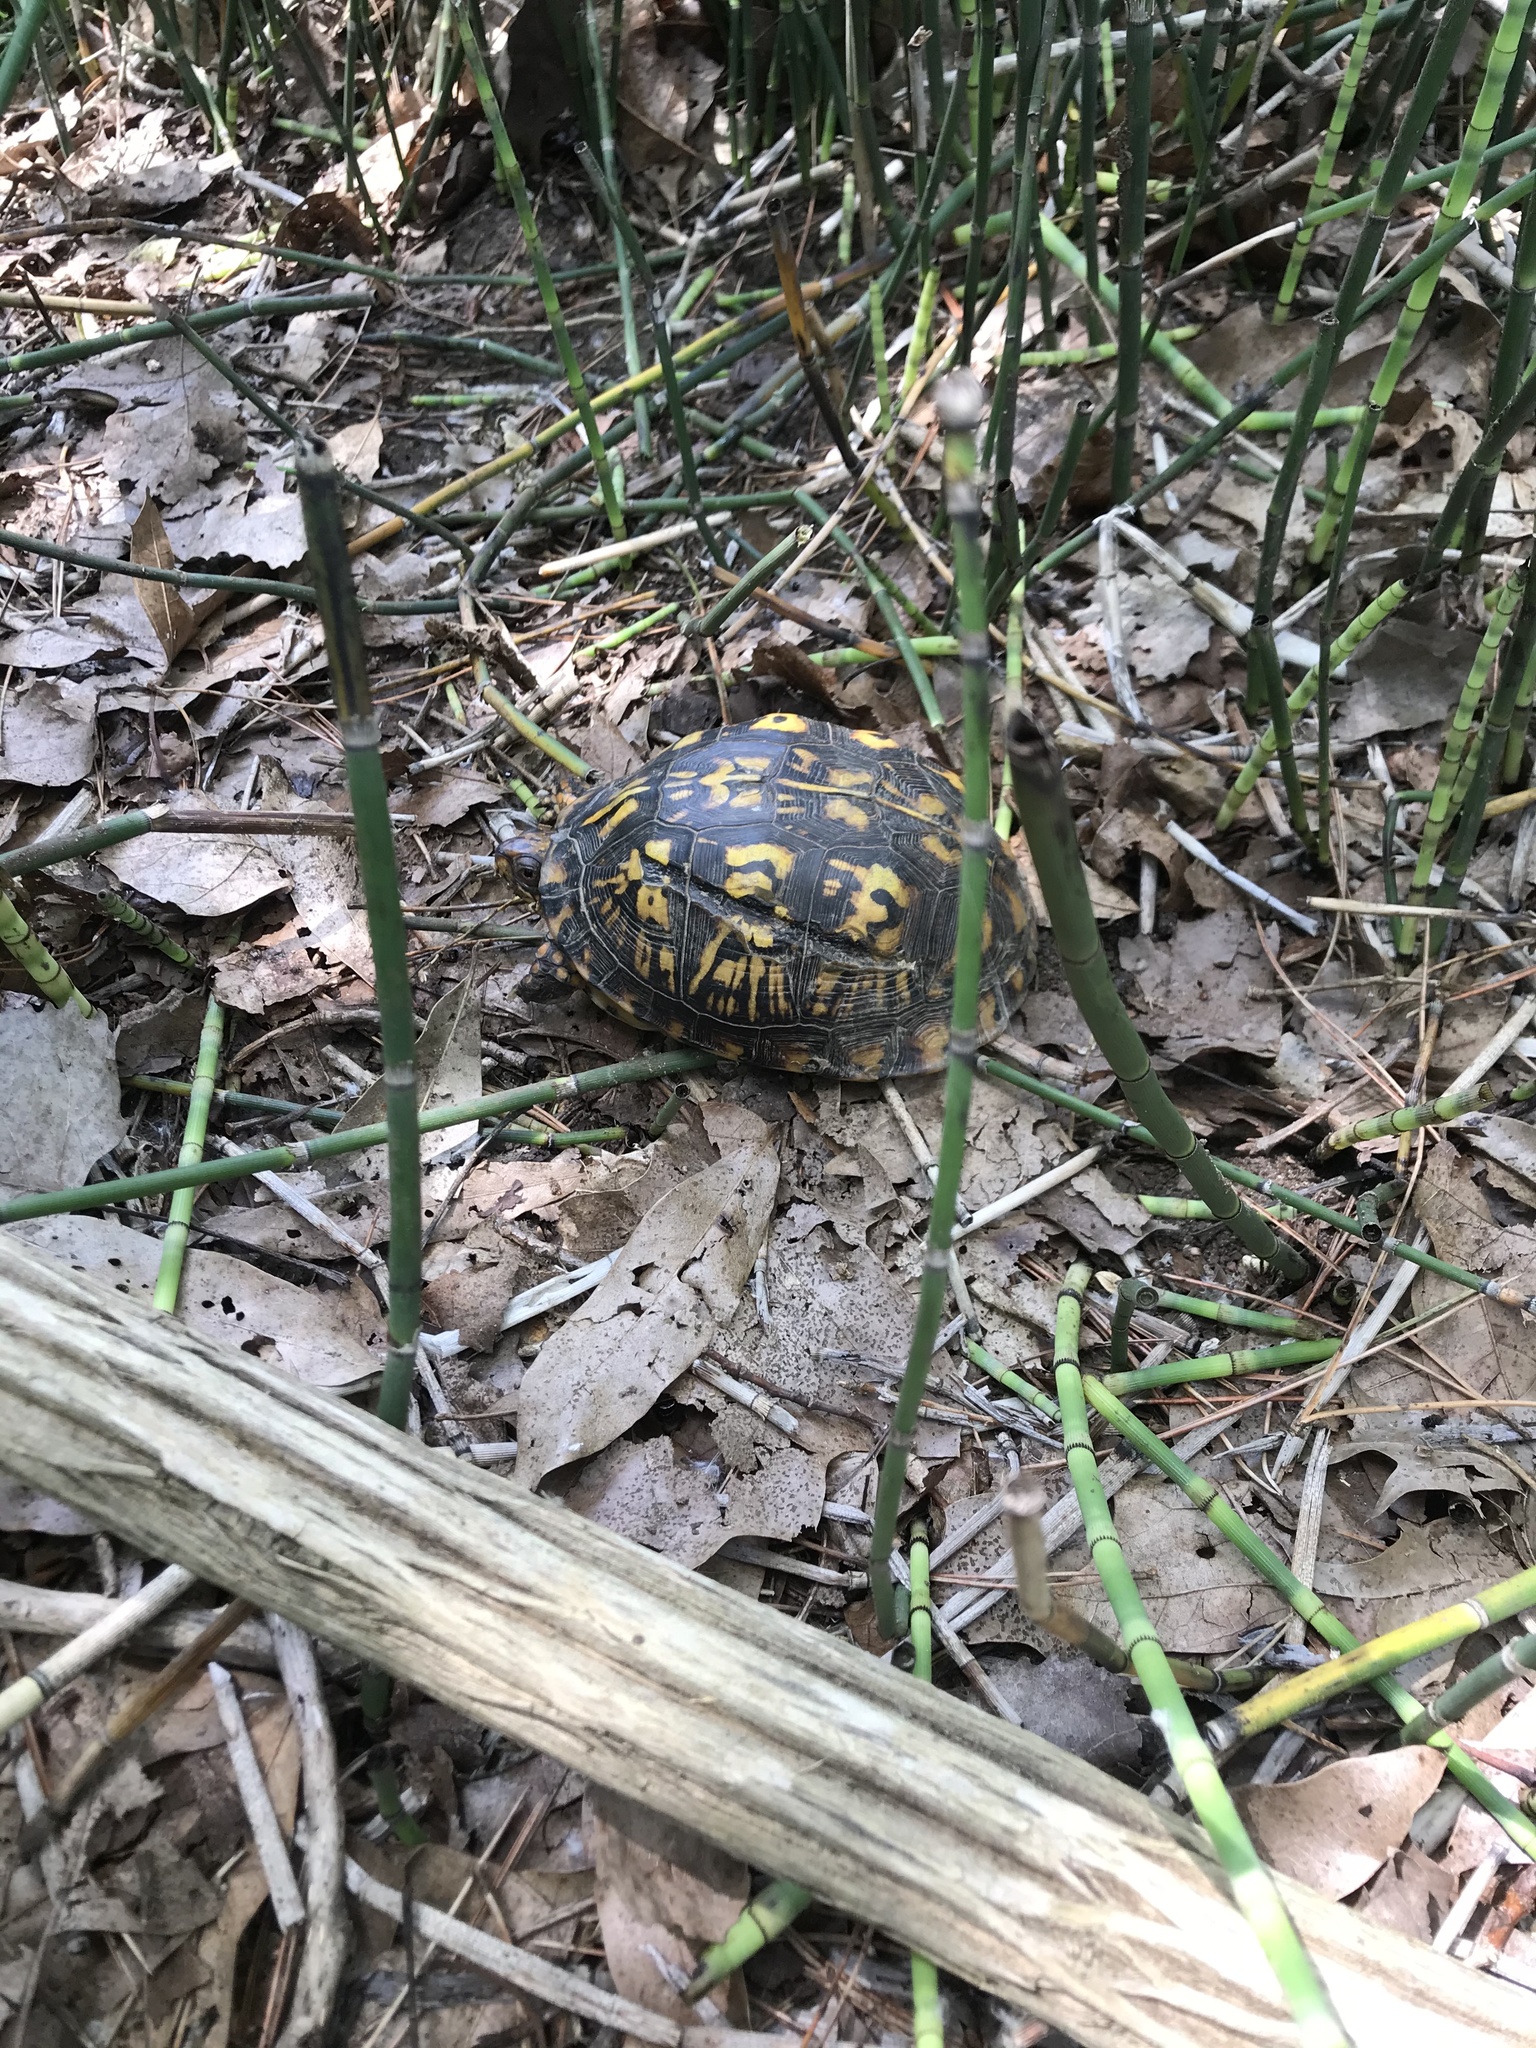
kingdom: Animalia
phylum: Chordata
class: Testudines
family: Emydidae
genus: Terrapene
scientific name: Terrapene carolina
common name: Common box turtle
